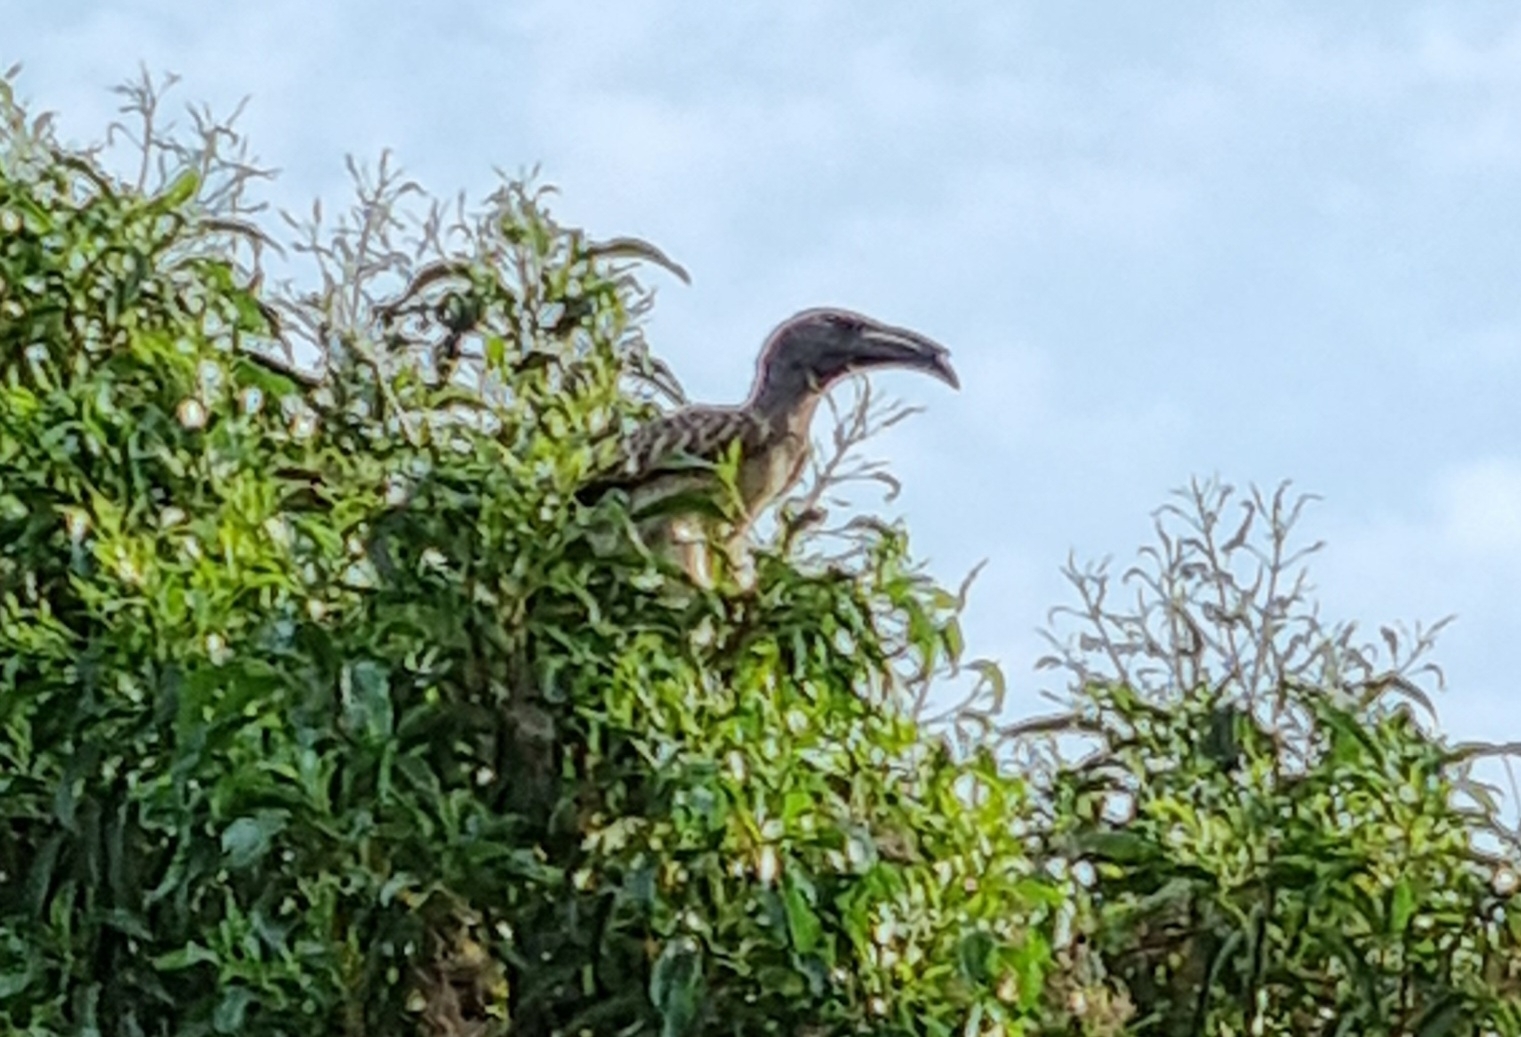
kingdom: Animalia
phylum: Chordata
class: Aves
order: Bucerotiformes
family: Bucerotidae
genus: Lophoceros
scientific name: Lophoceros nasutus
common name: African grey hornbill
